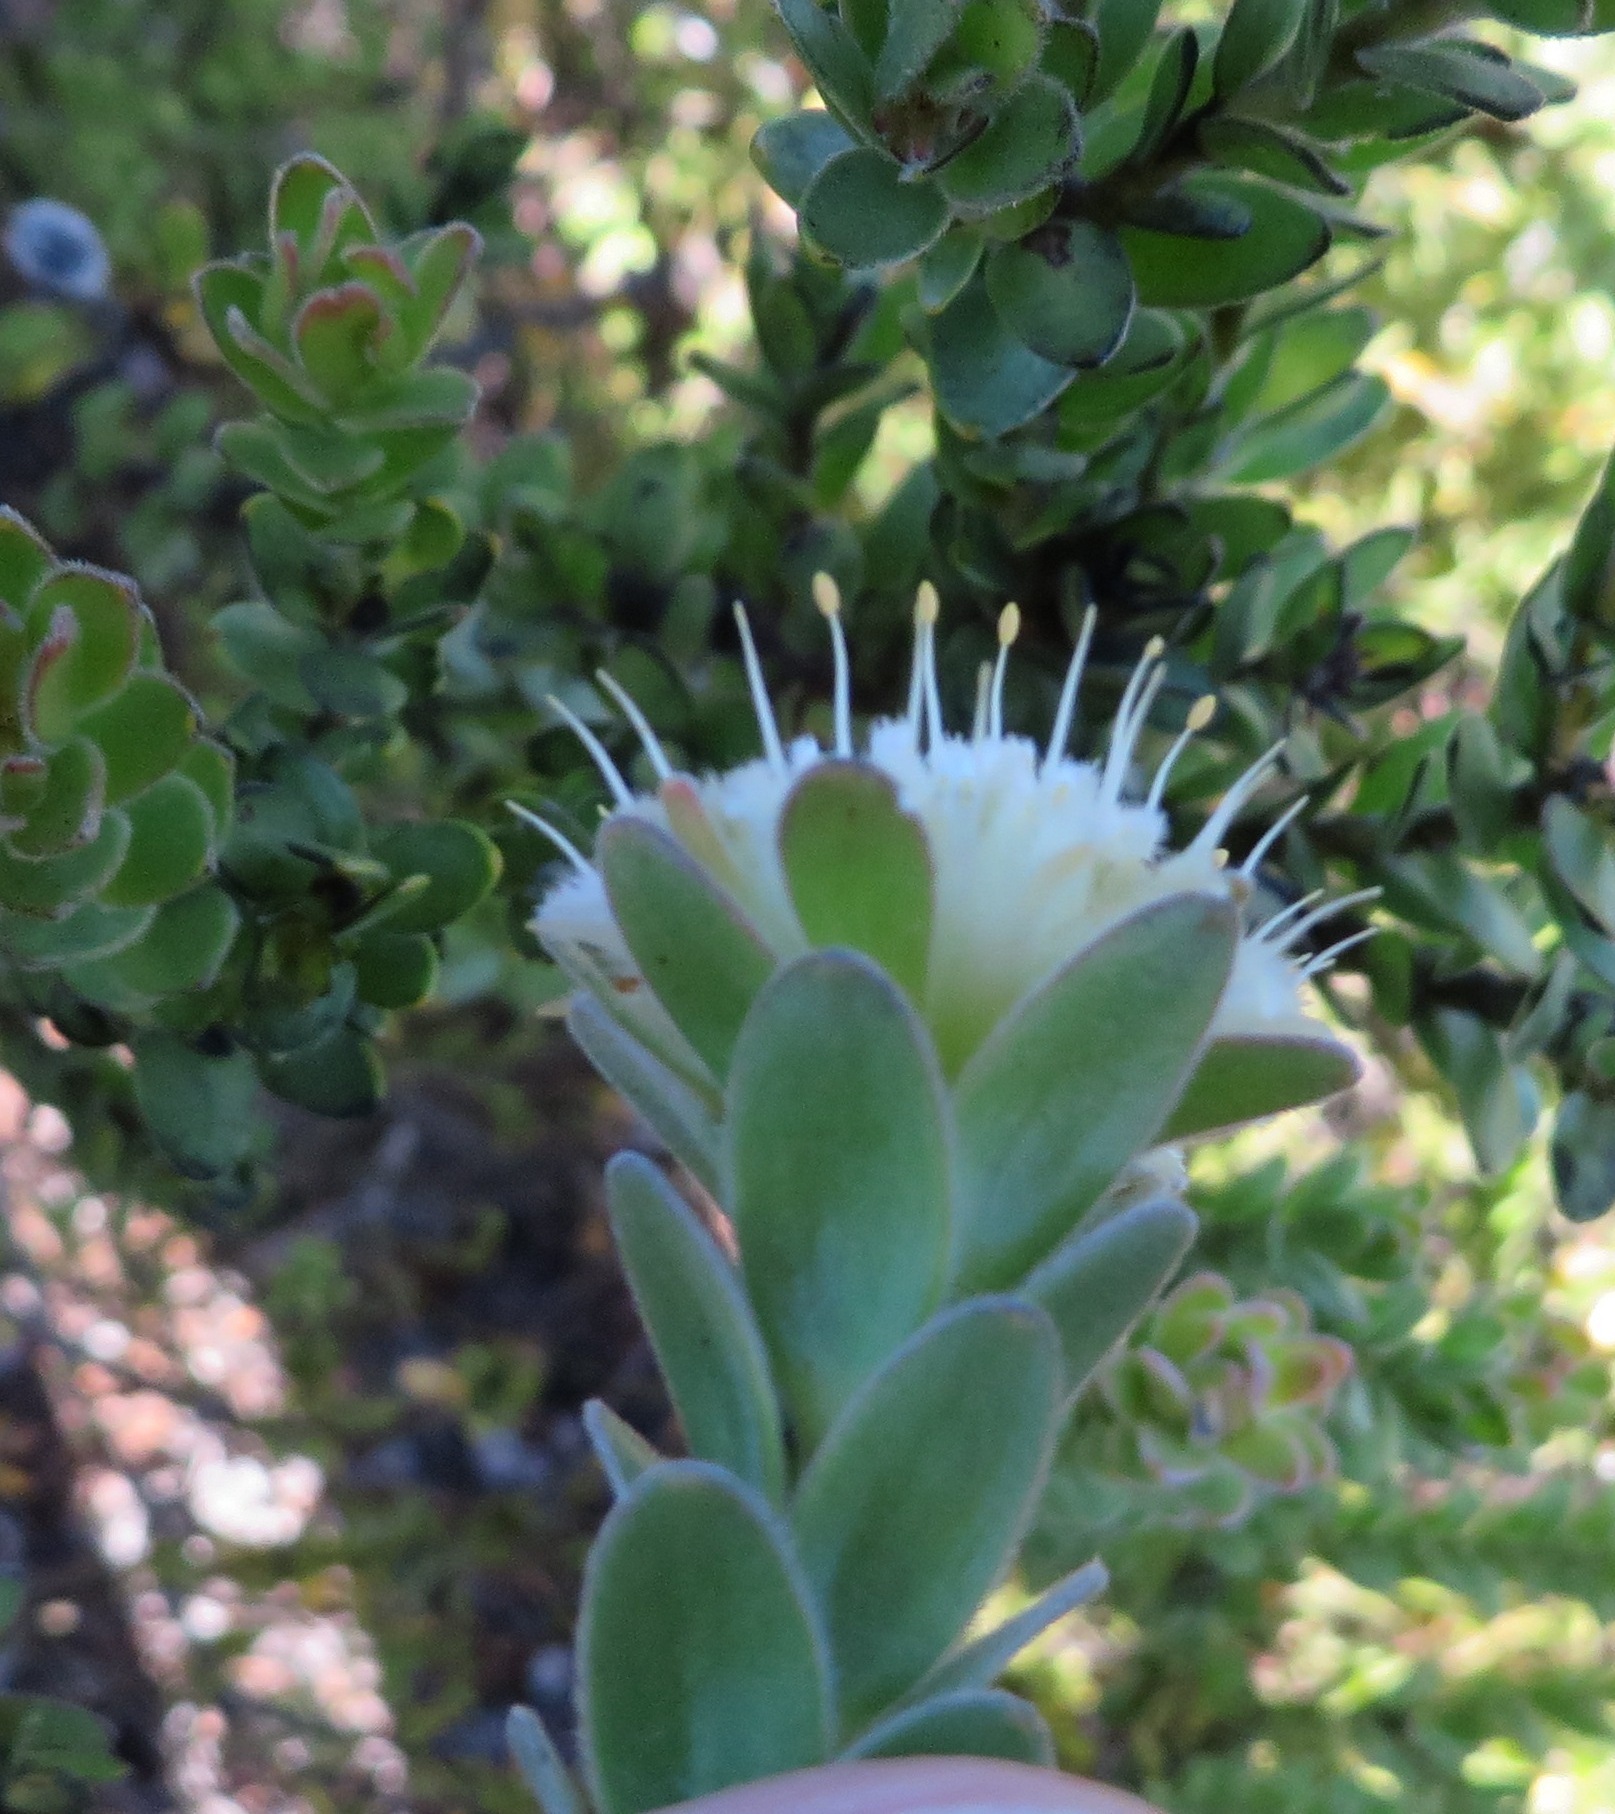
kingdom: Plantae
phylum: Tracheophyta
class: Magnoliopsida
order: Proteales
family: Proteaceae
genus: Diastella
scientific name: Diastella thymelaeoides
